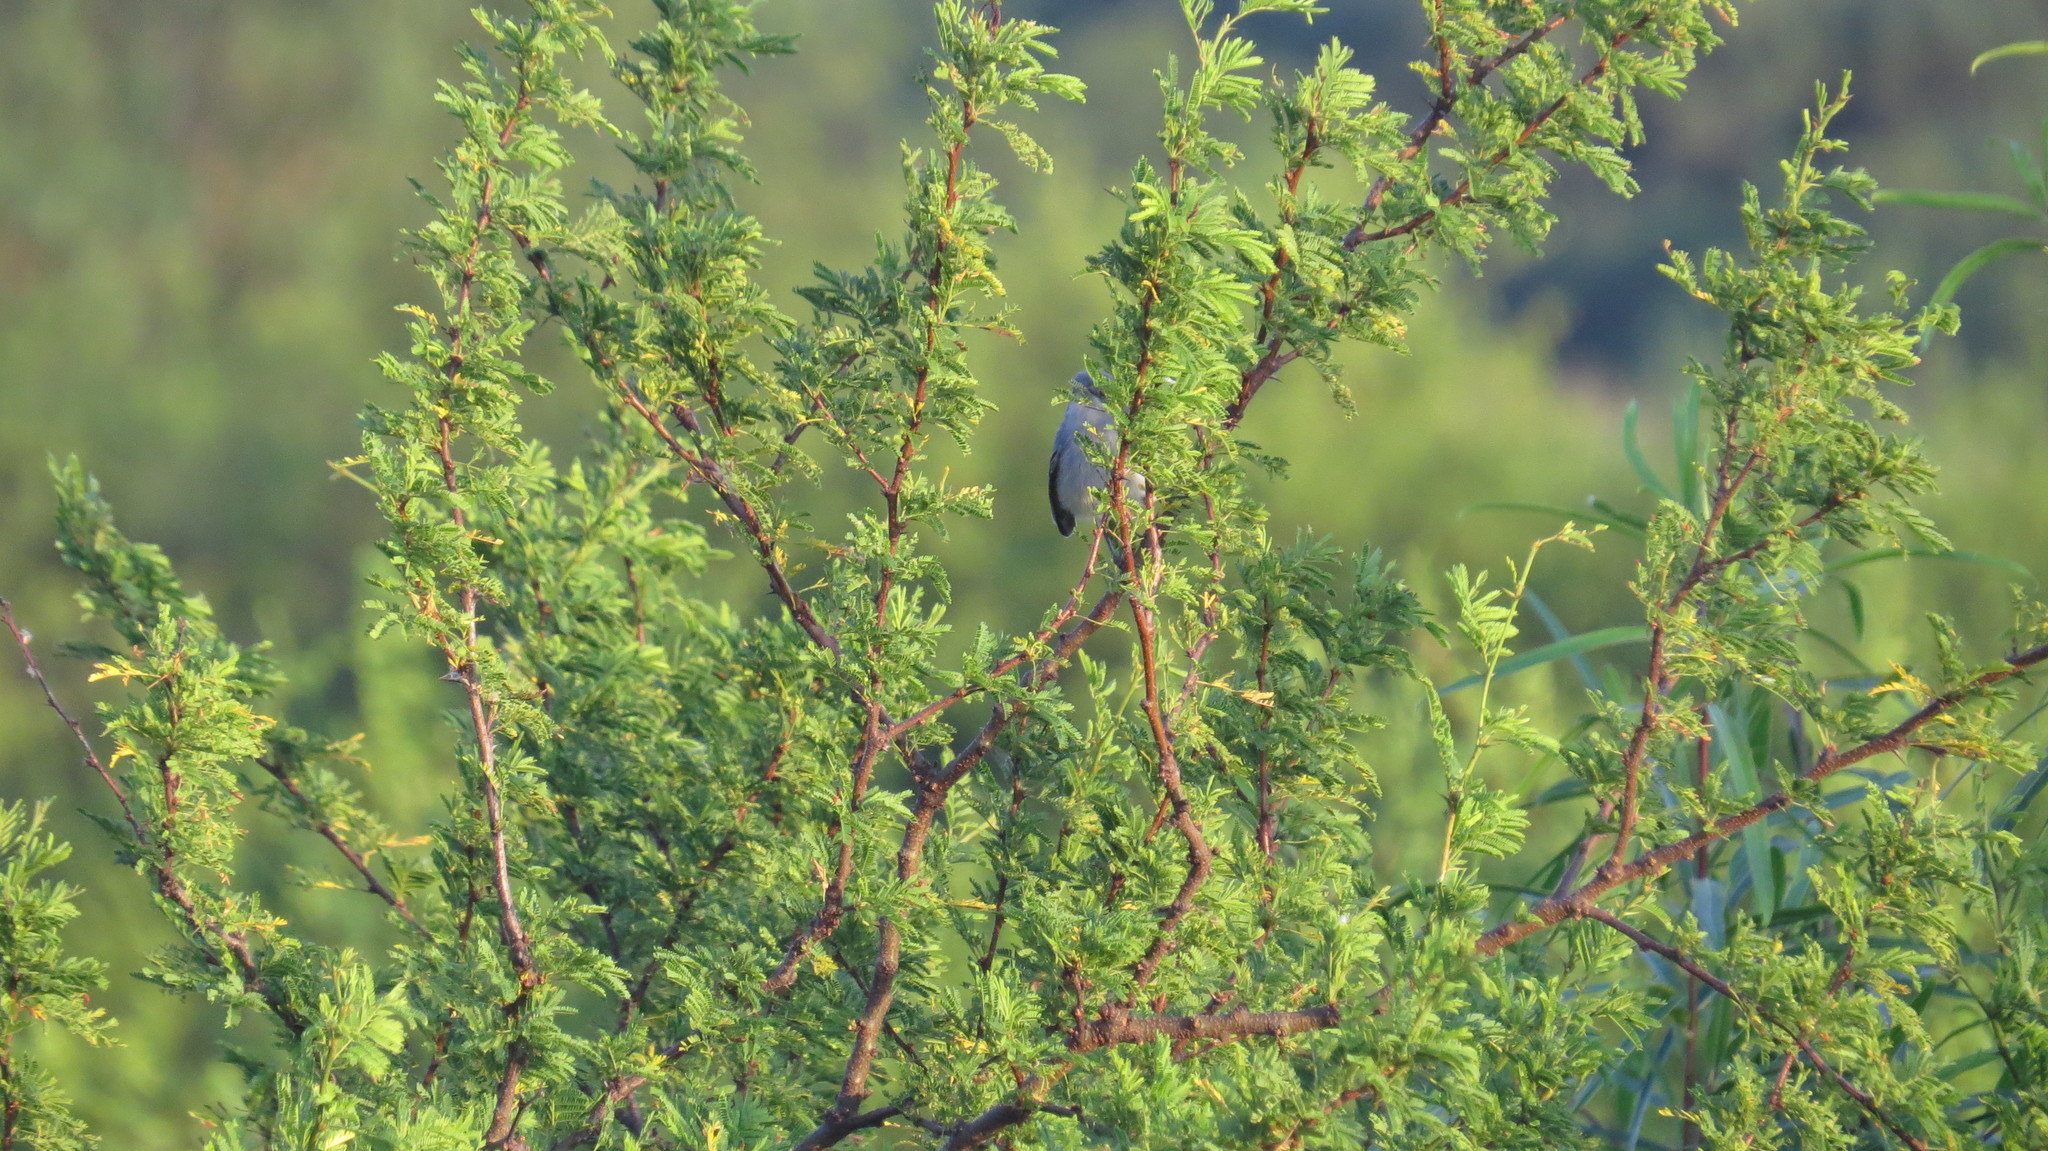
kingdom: Animalia
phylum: Chordata
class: Aves
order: Passeriformes
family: Polioptilidae
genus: Polioptila
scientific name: Polioptila dumicola
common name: Masked gnatcatcher
